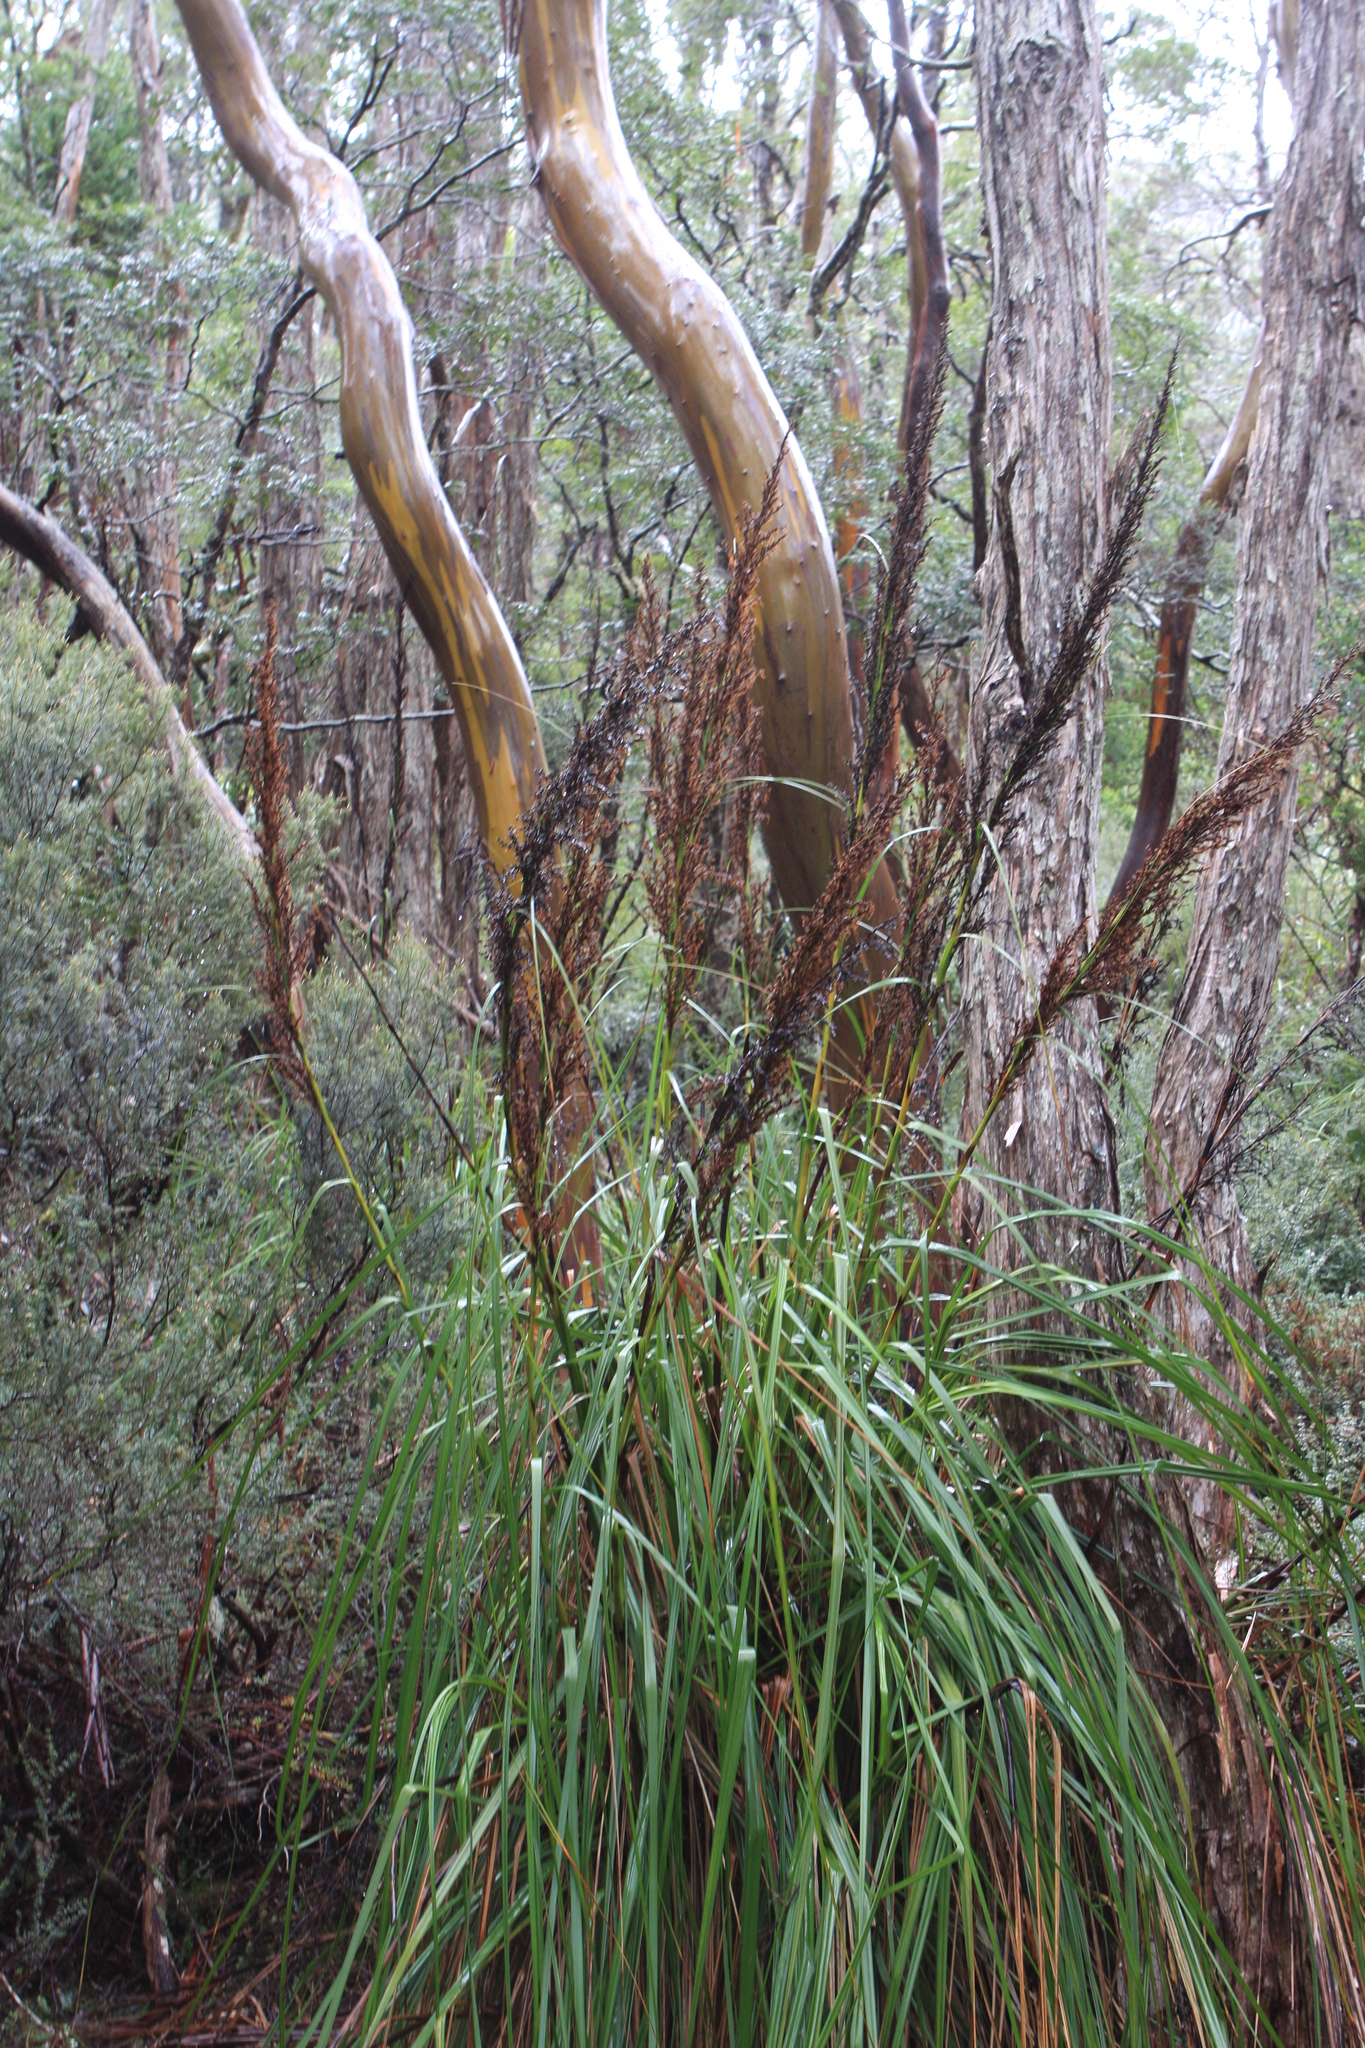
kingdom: Plantae
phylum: Tracheophyta
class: Liliopsida
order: Poales
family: Cyperaceae
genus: Gahnia
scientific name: Gahnia grandis
